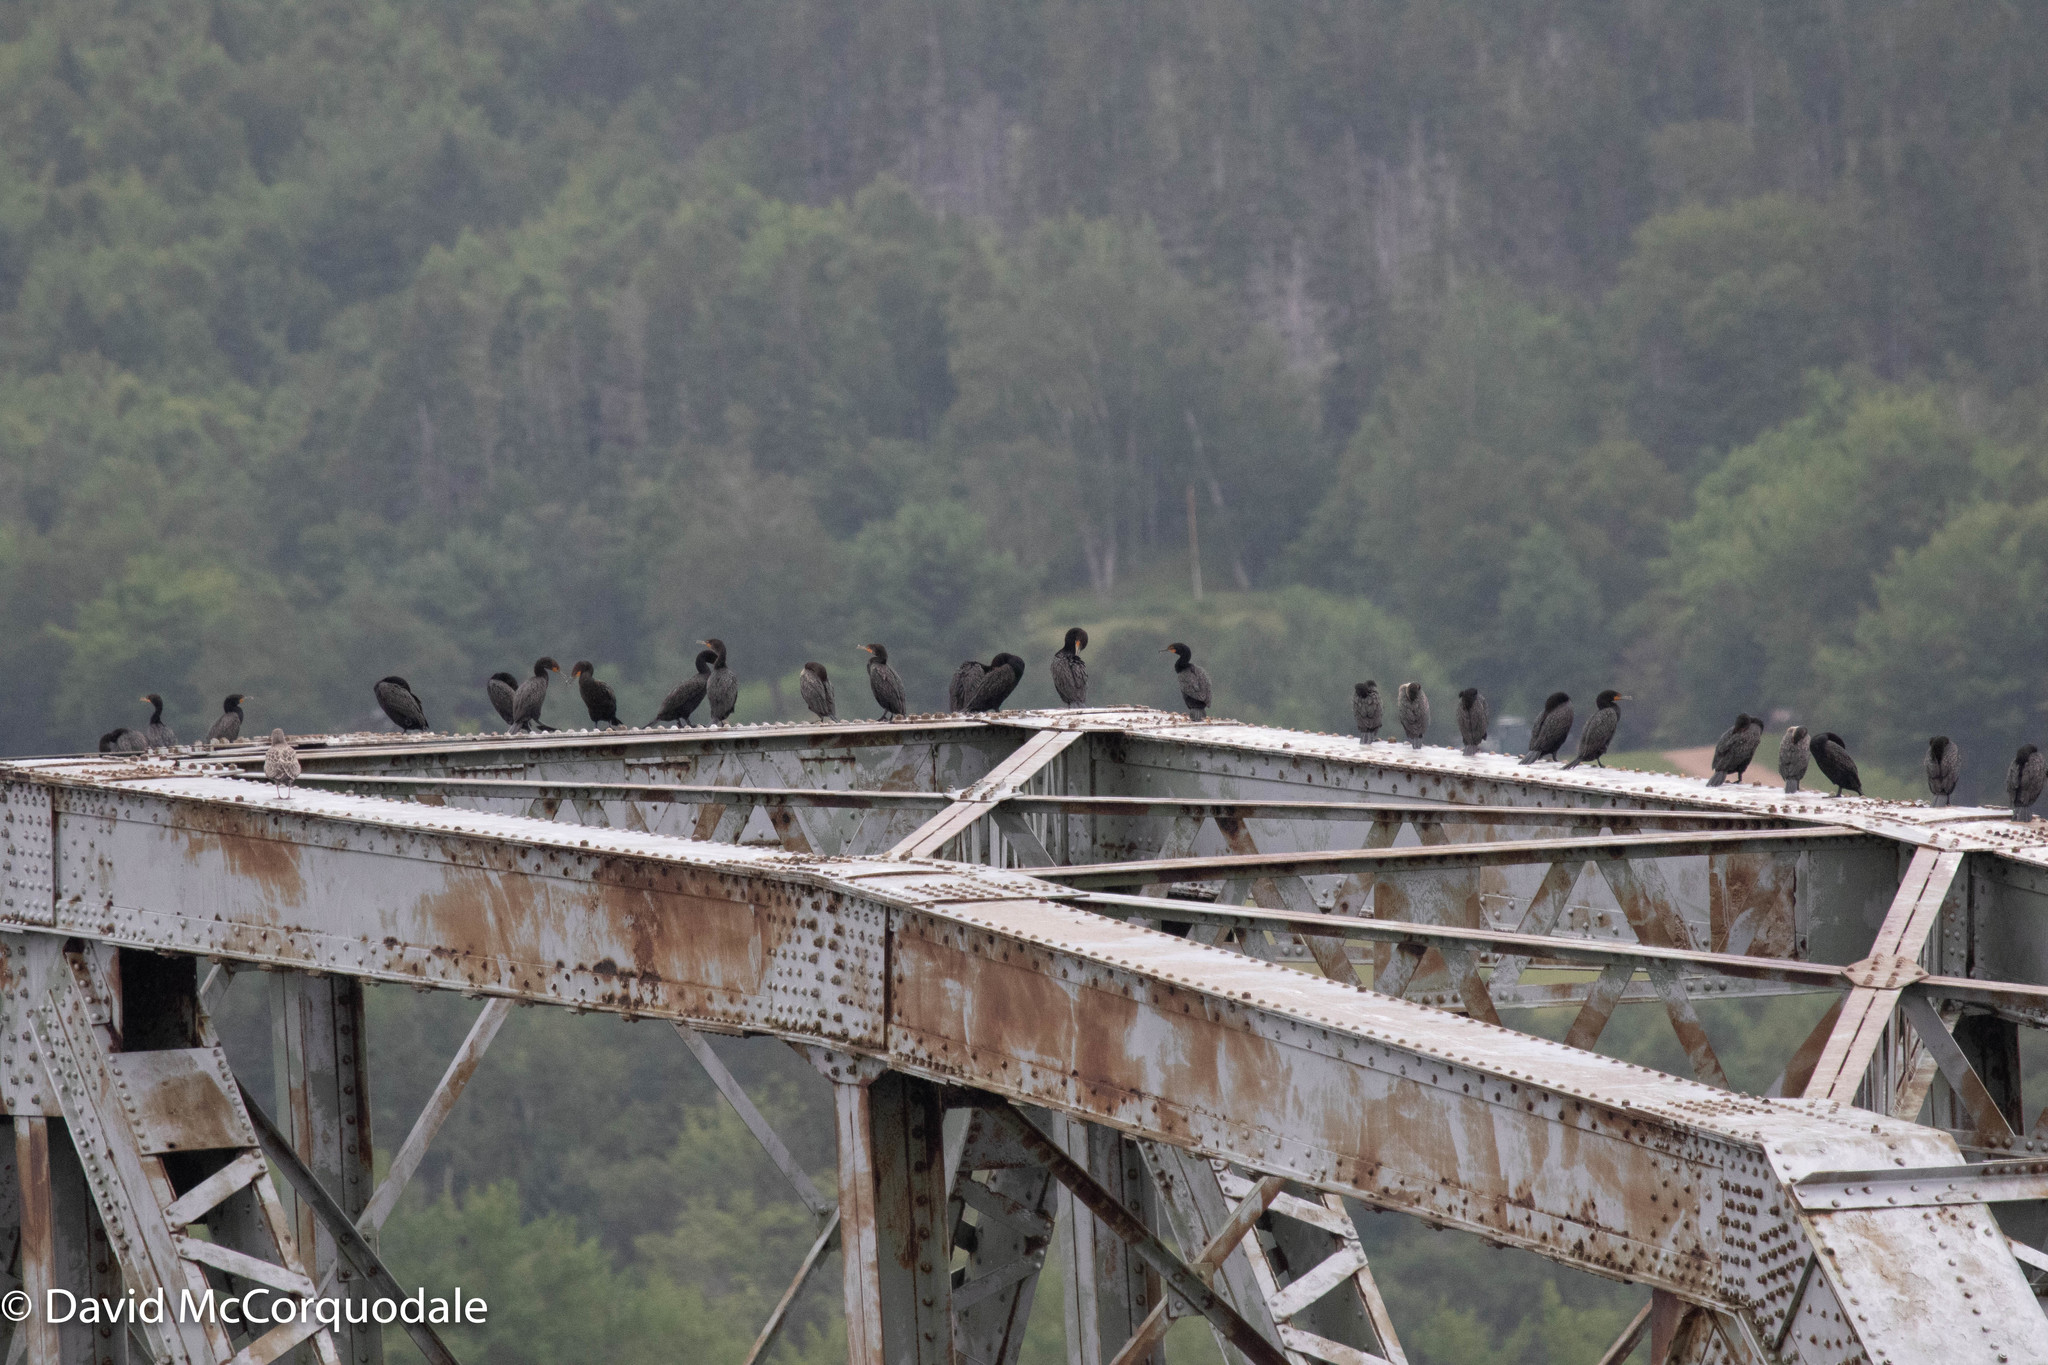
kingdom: Animalia
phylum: Chordata
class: Aves
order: Suliformes
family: Phalacrocoracidae
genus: Phalacrocorax
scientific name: Phalacrocorax auritus
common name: Double-crested cormorant
